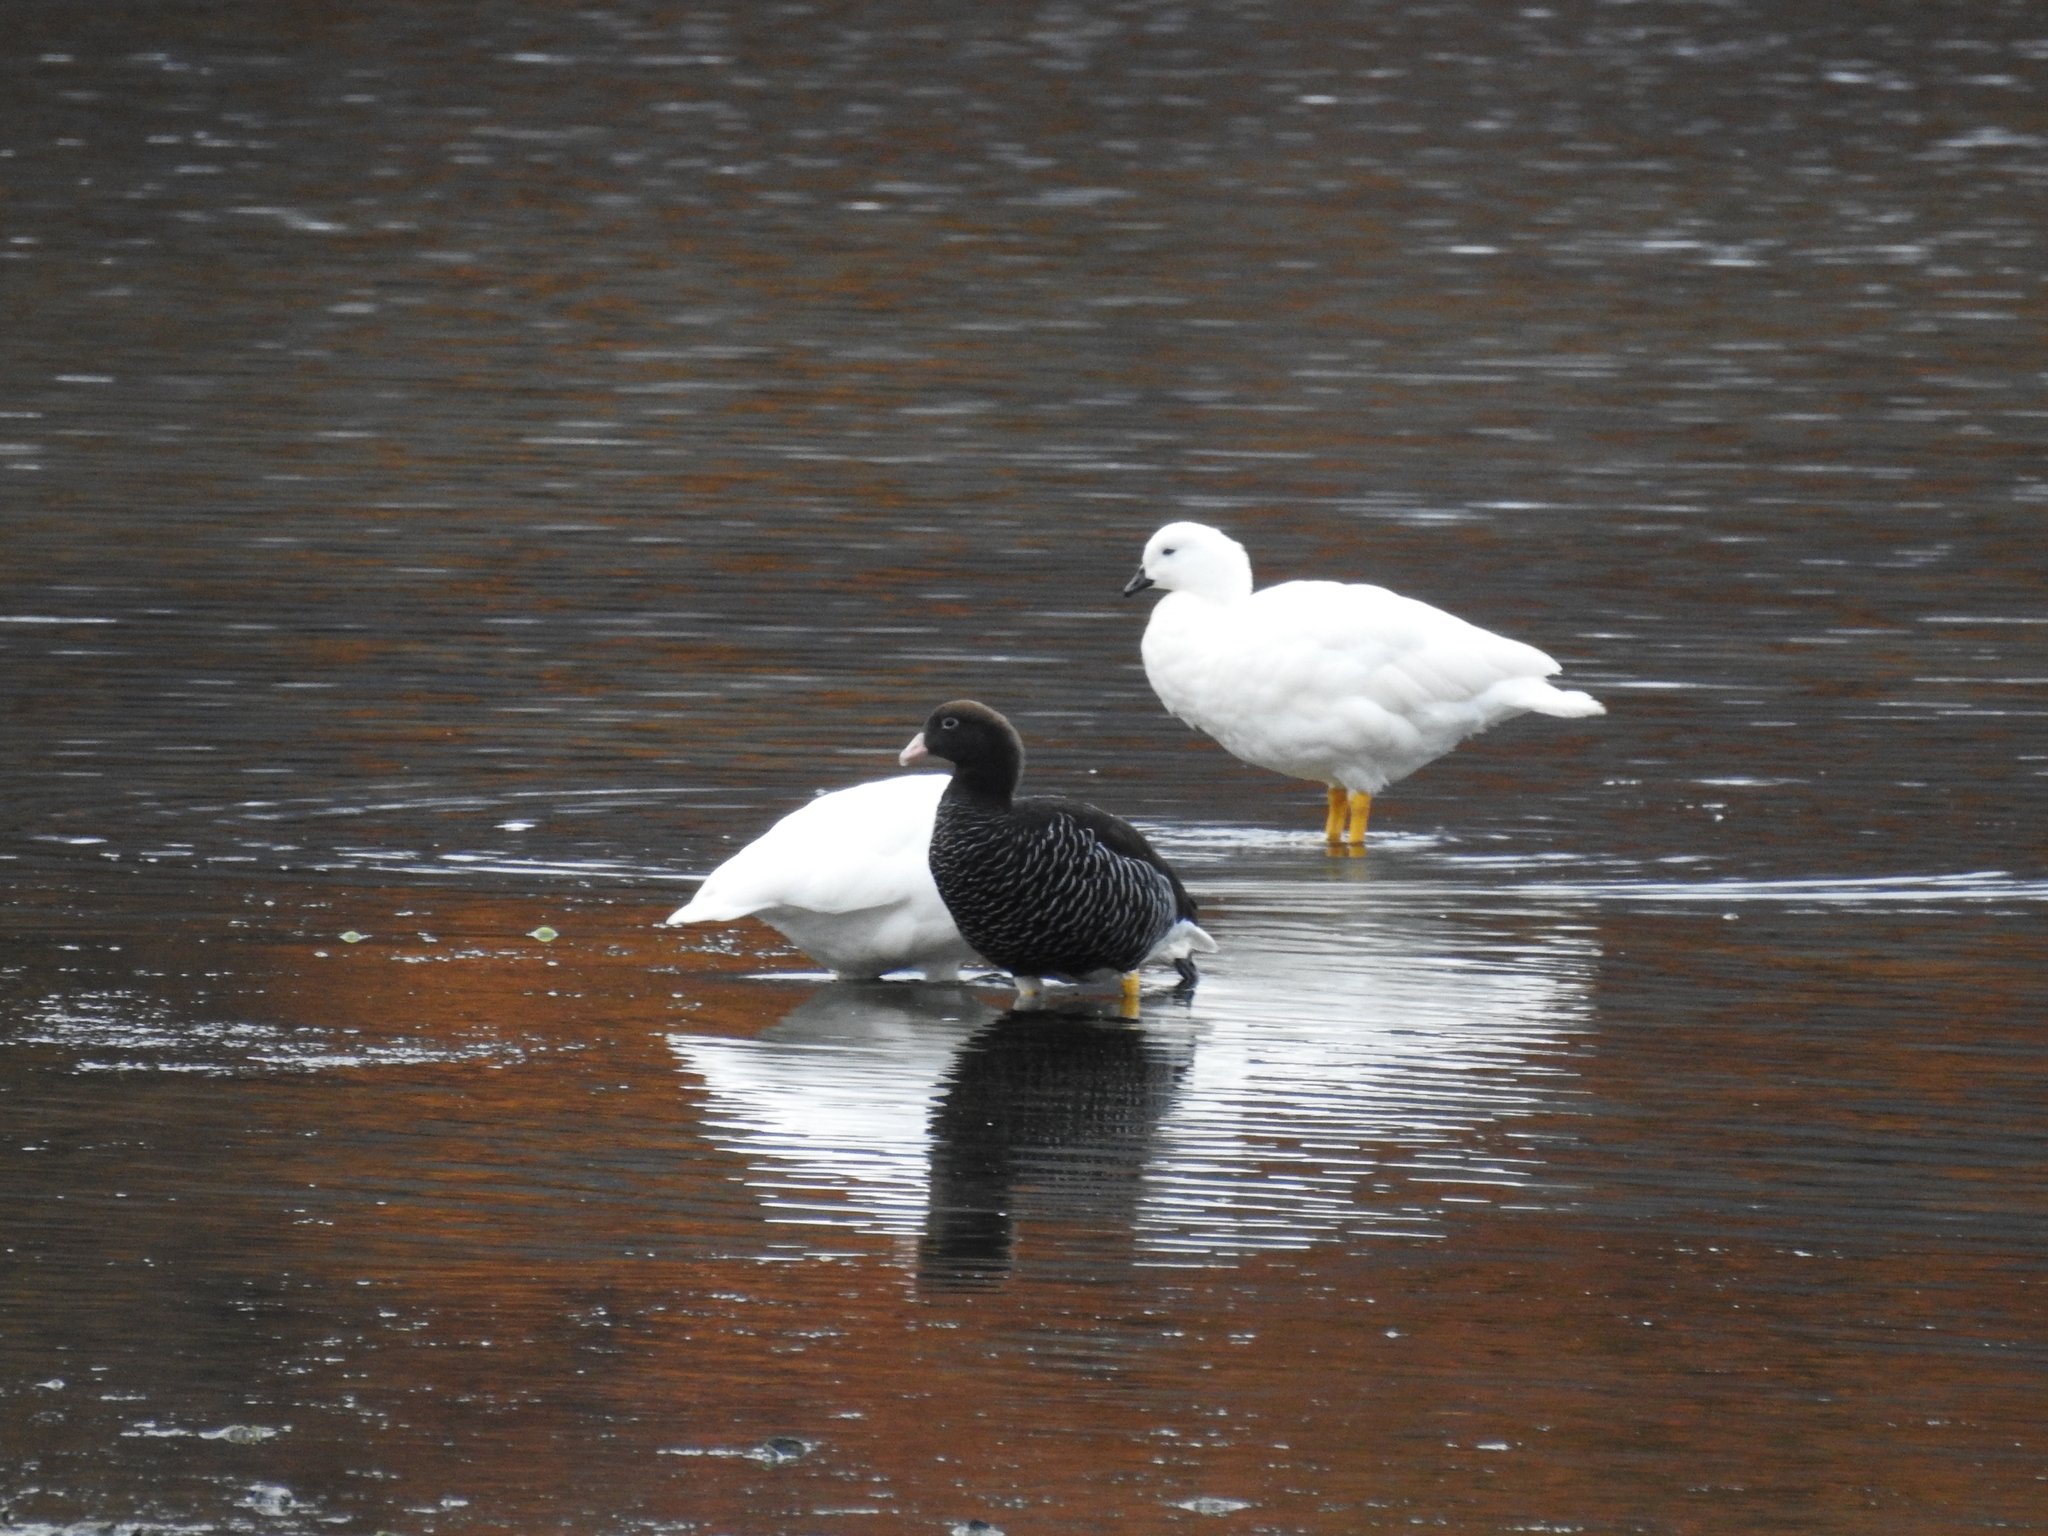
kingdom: Animalia
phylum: Chordata
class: Aves
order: Anseriformes
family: Anatidae
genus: Chloephaga
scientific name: Chloephaga hybrida
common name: Kelp goose
